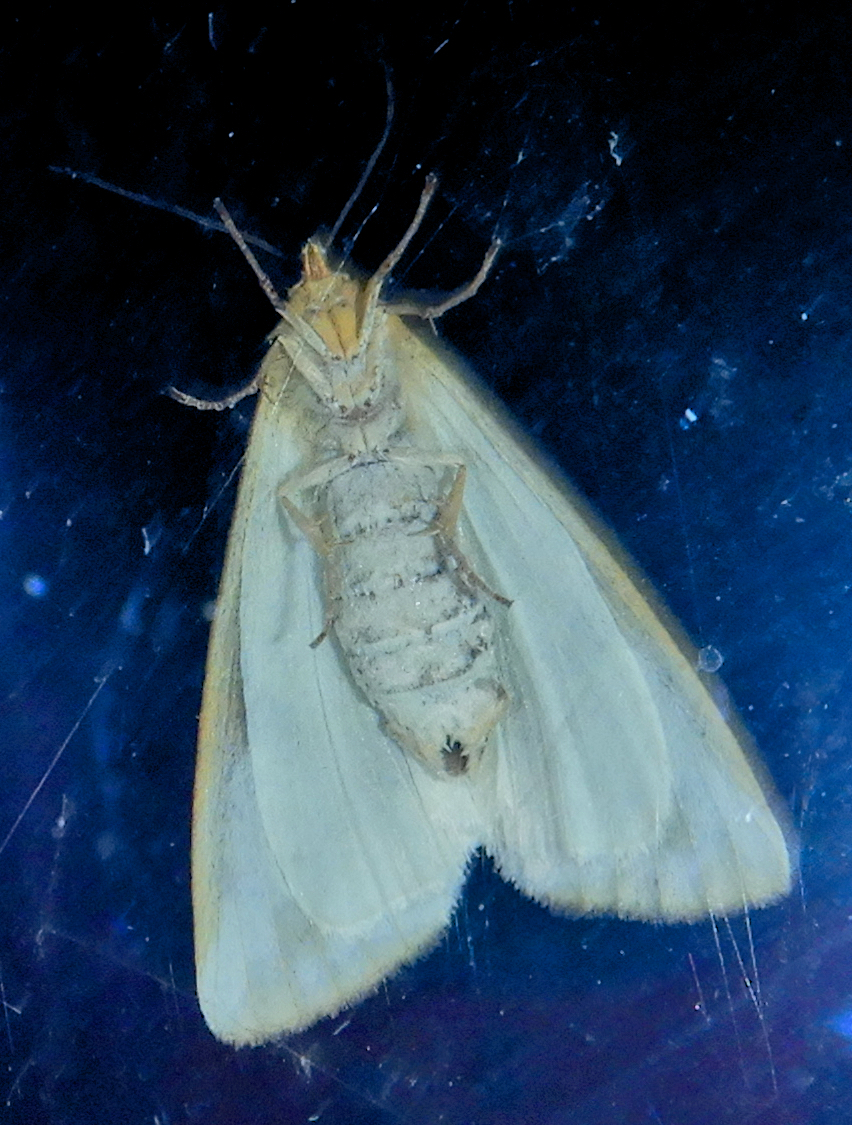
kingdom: Animalia
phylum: Arthropoda
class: Insecta
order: Lepidoptera
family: Erebidae
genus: Haploa
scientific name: Haploa lecontei
